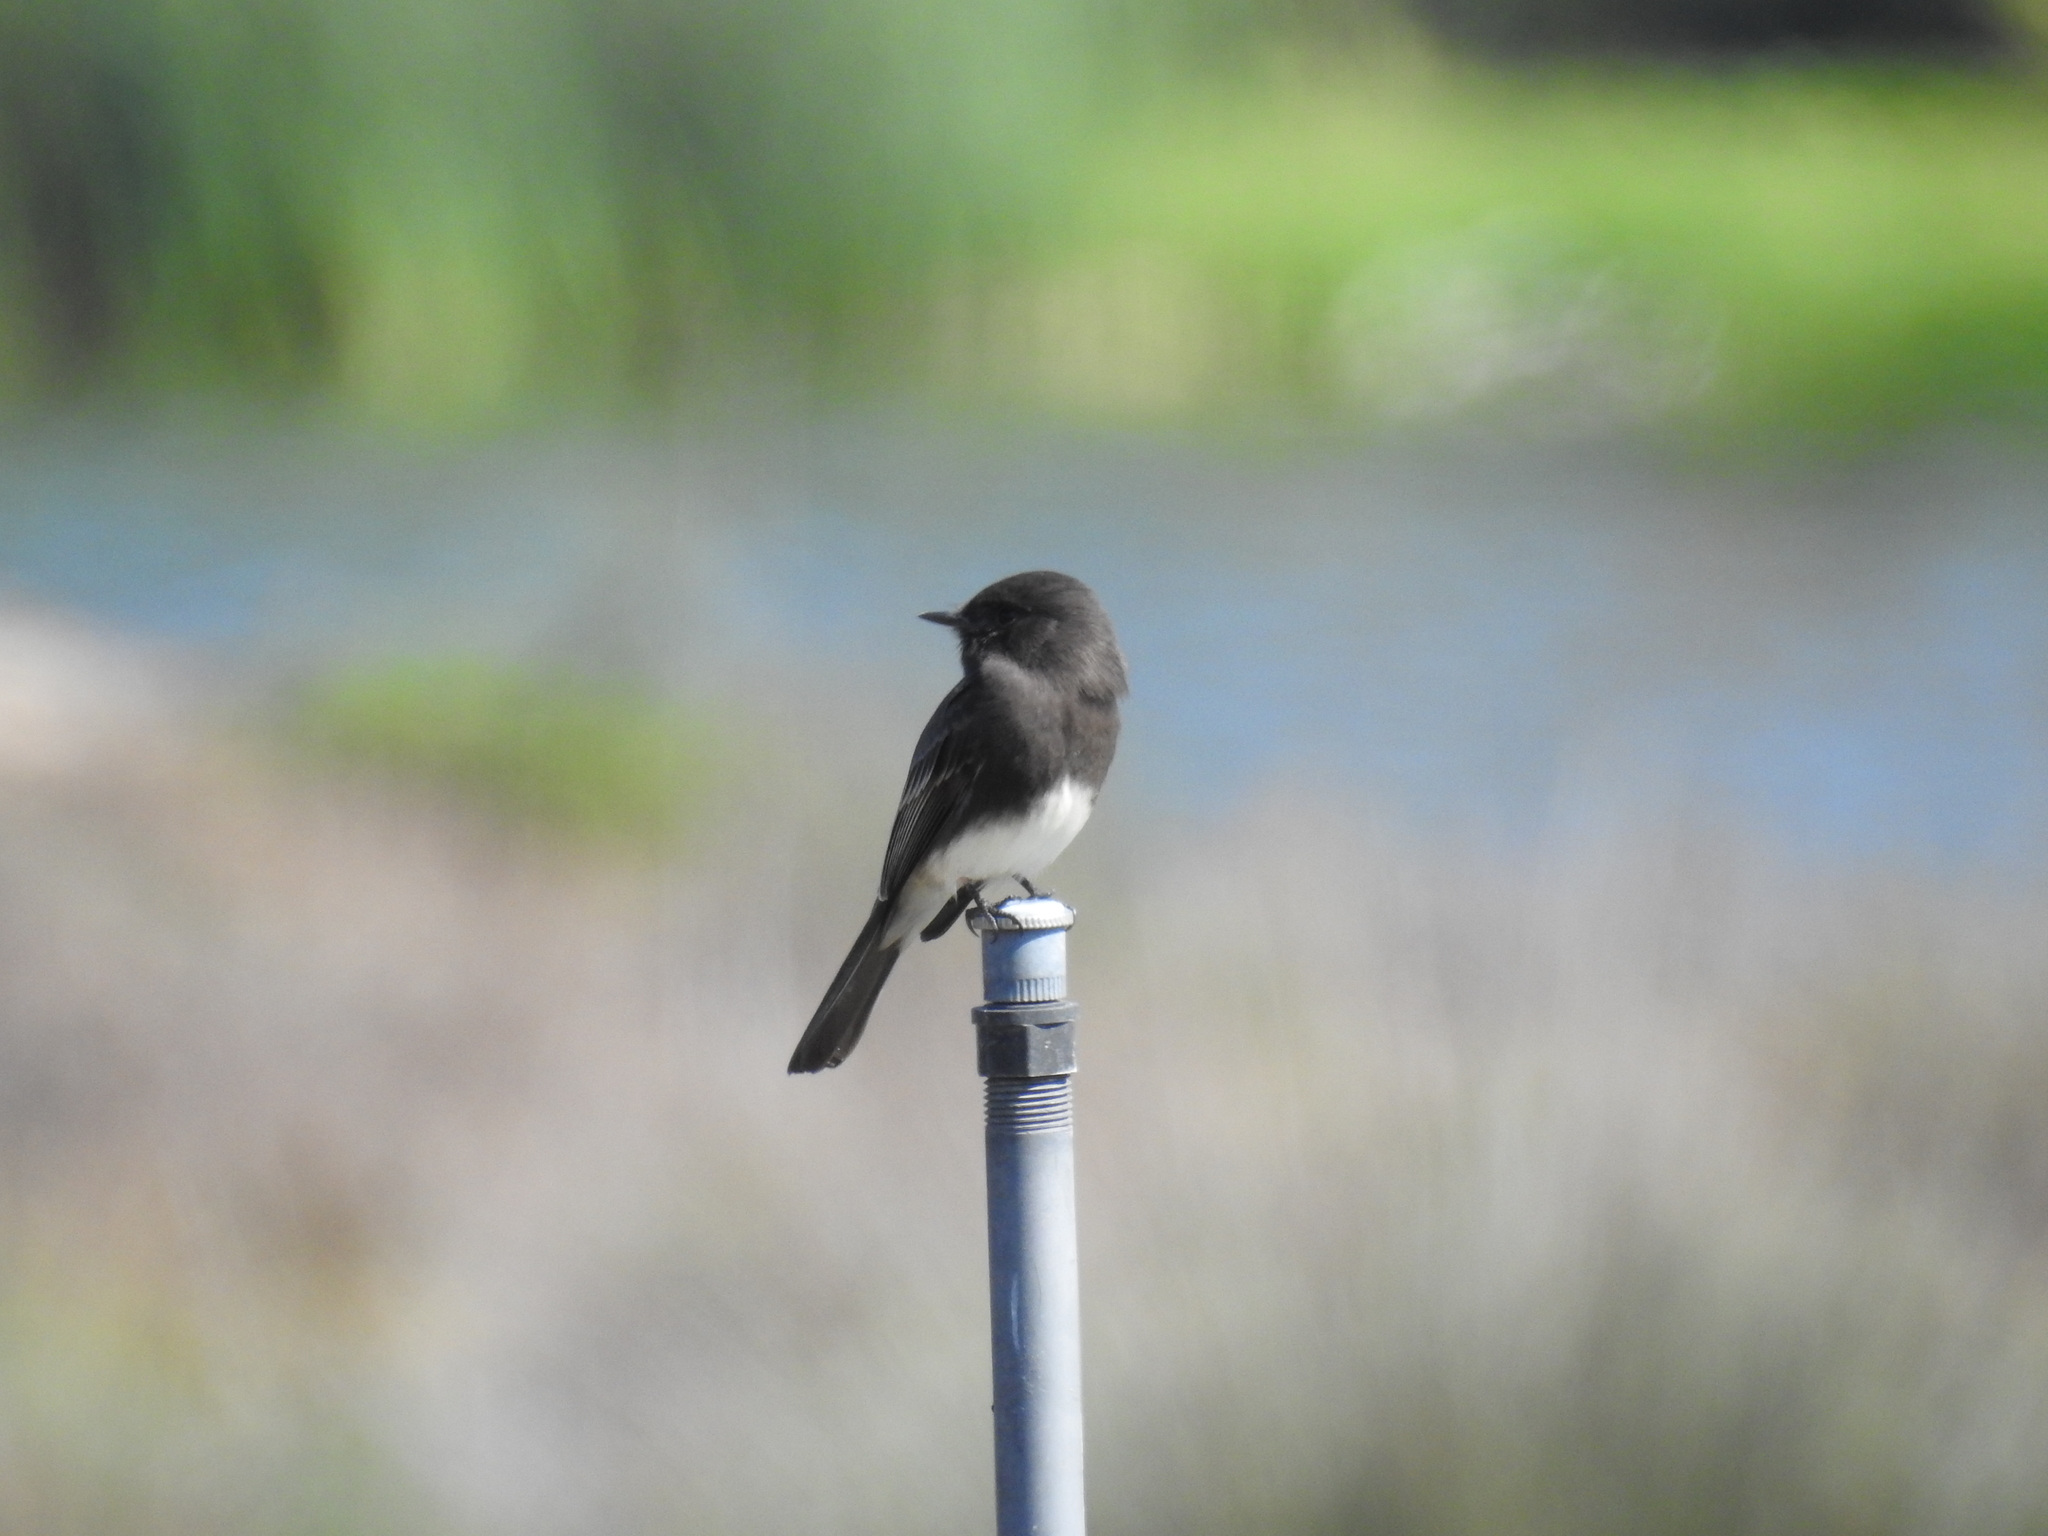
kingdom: Animalia
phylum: Chordata
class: Aves
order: Passeriformes
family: Tyrannidae
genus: Sayornis
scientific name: Sayornis nigricans
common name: Black phoebe
